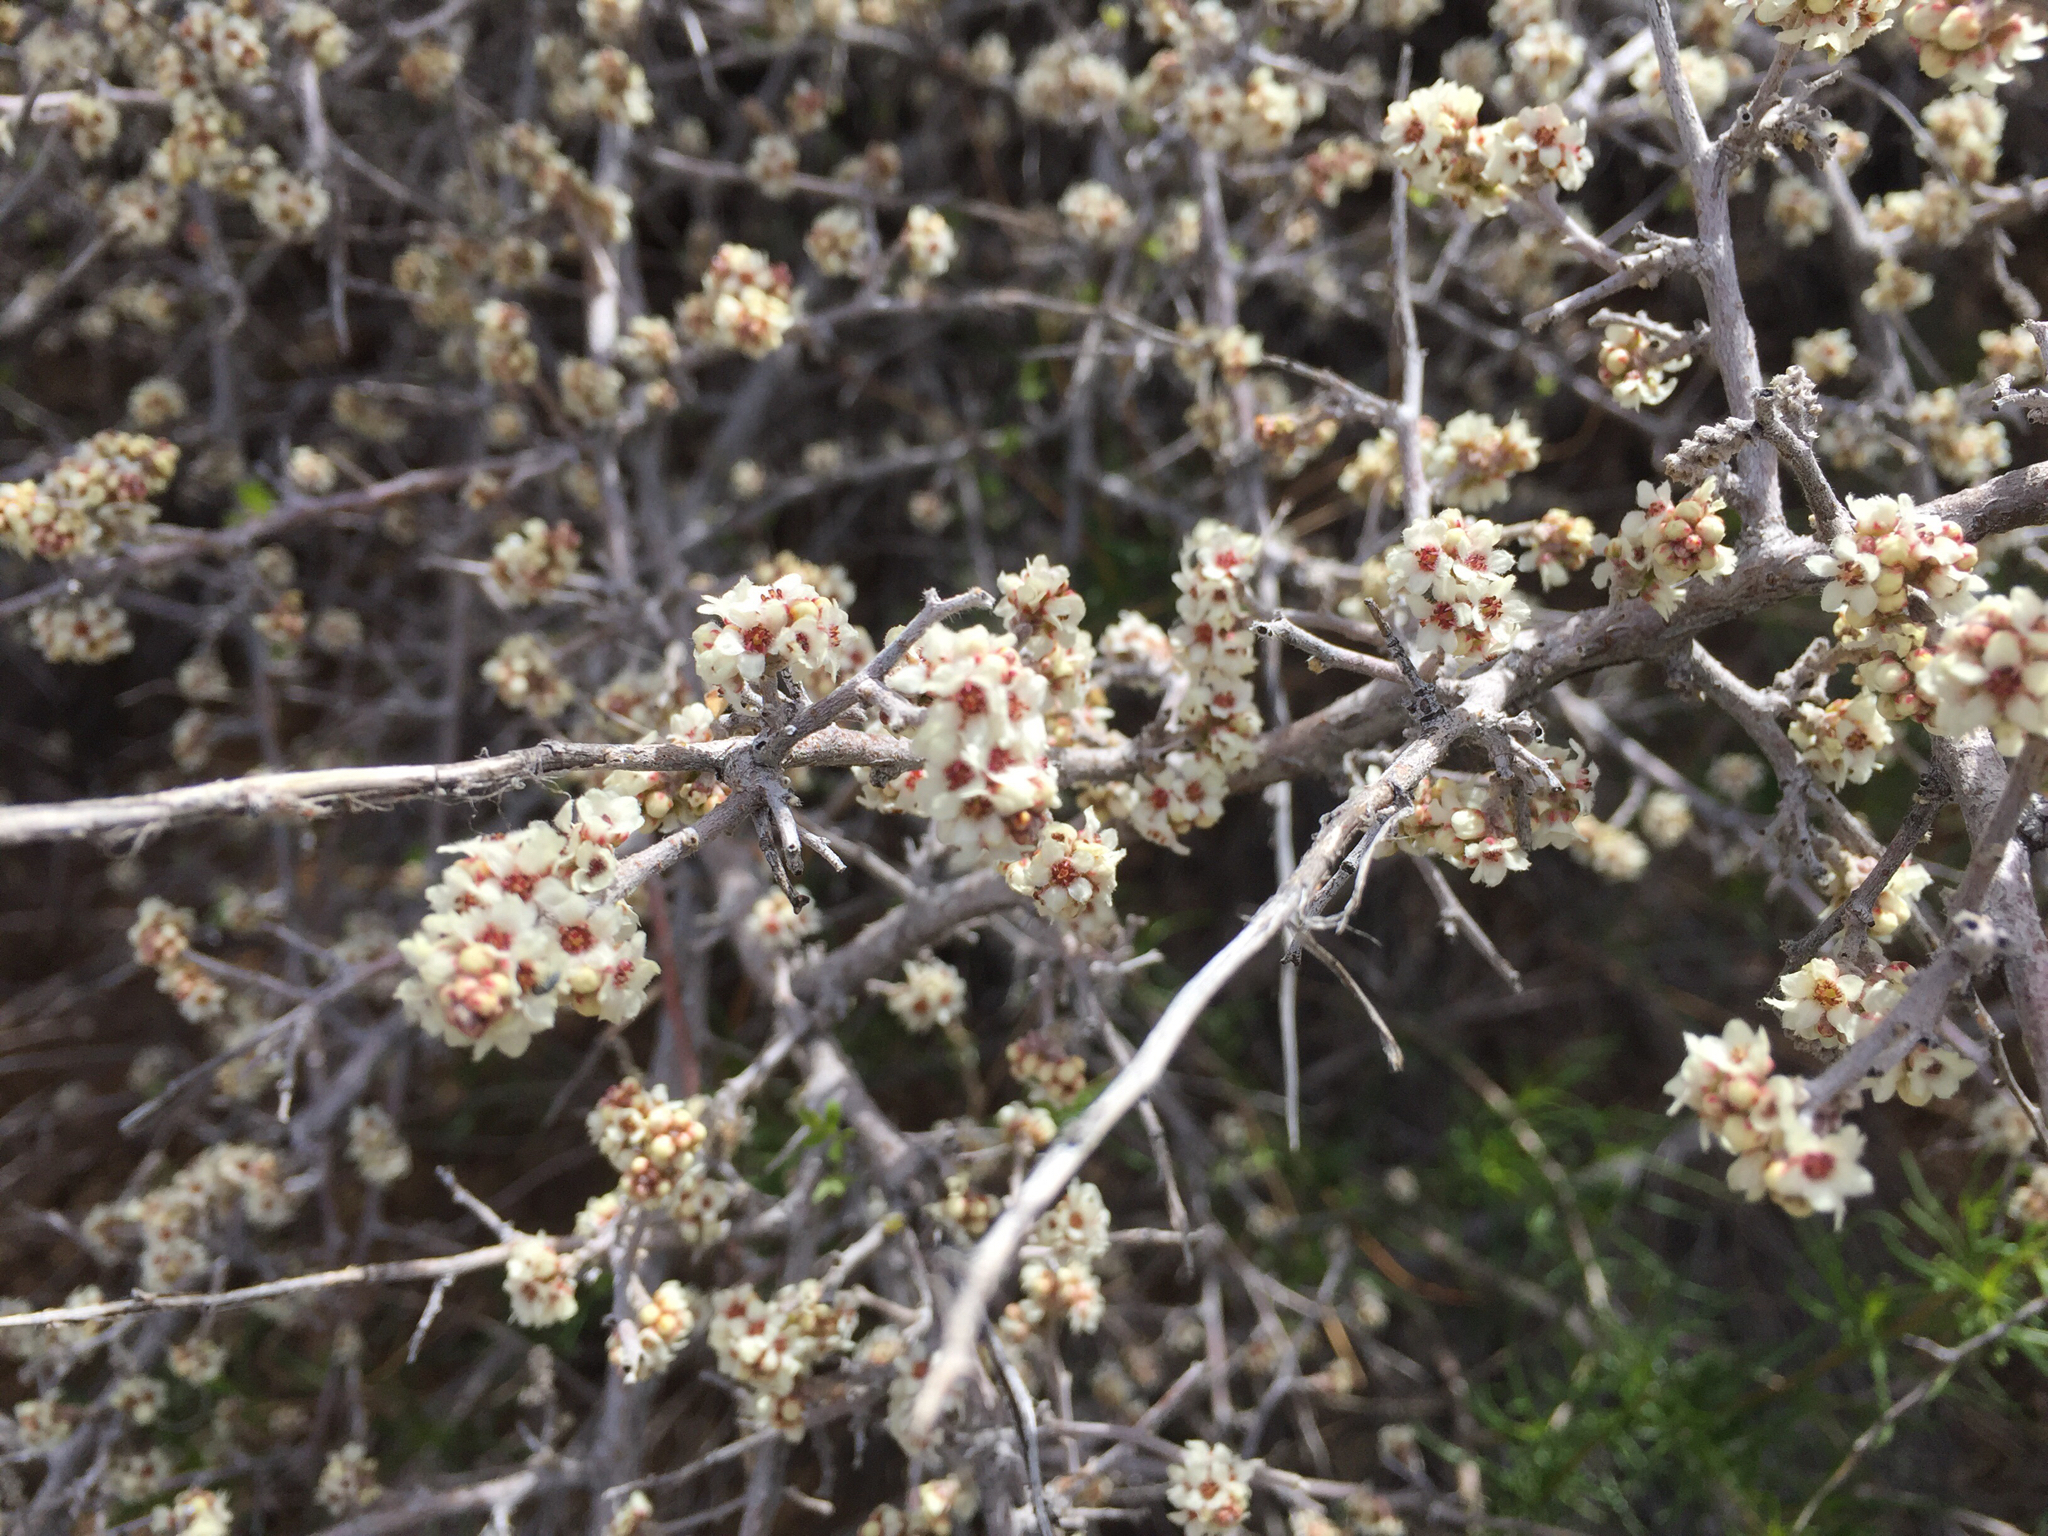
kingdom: Plantae
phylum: Tracheophyta
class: Magnoliopsida
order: Sapindales
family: Anacardiaceae
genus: Rhus
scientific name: Rhus microphylla
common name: Desert sumac
